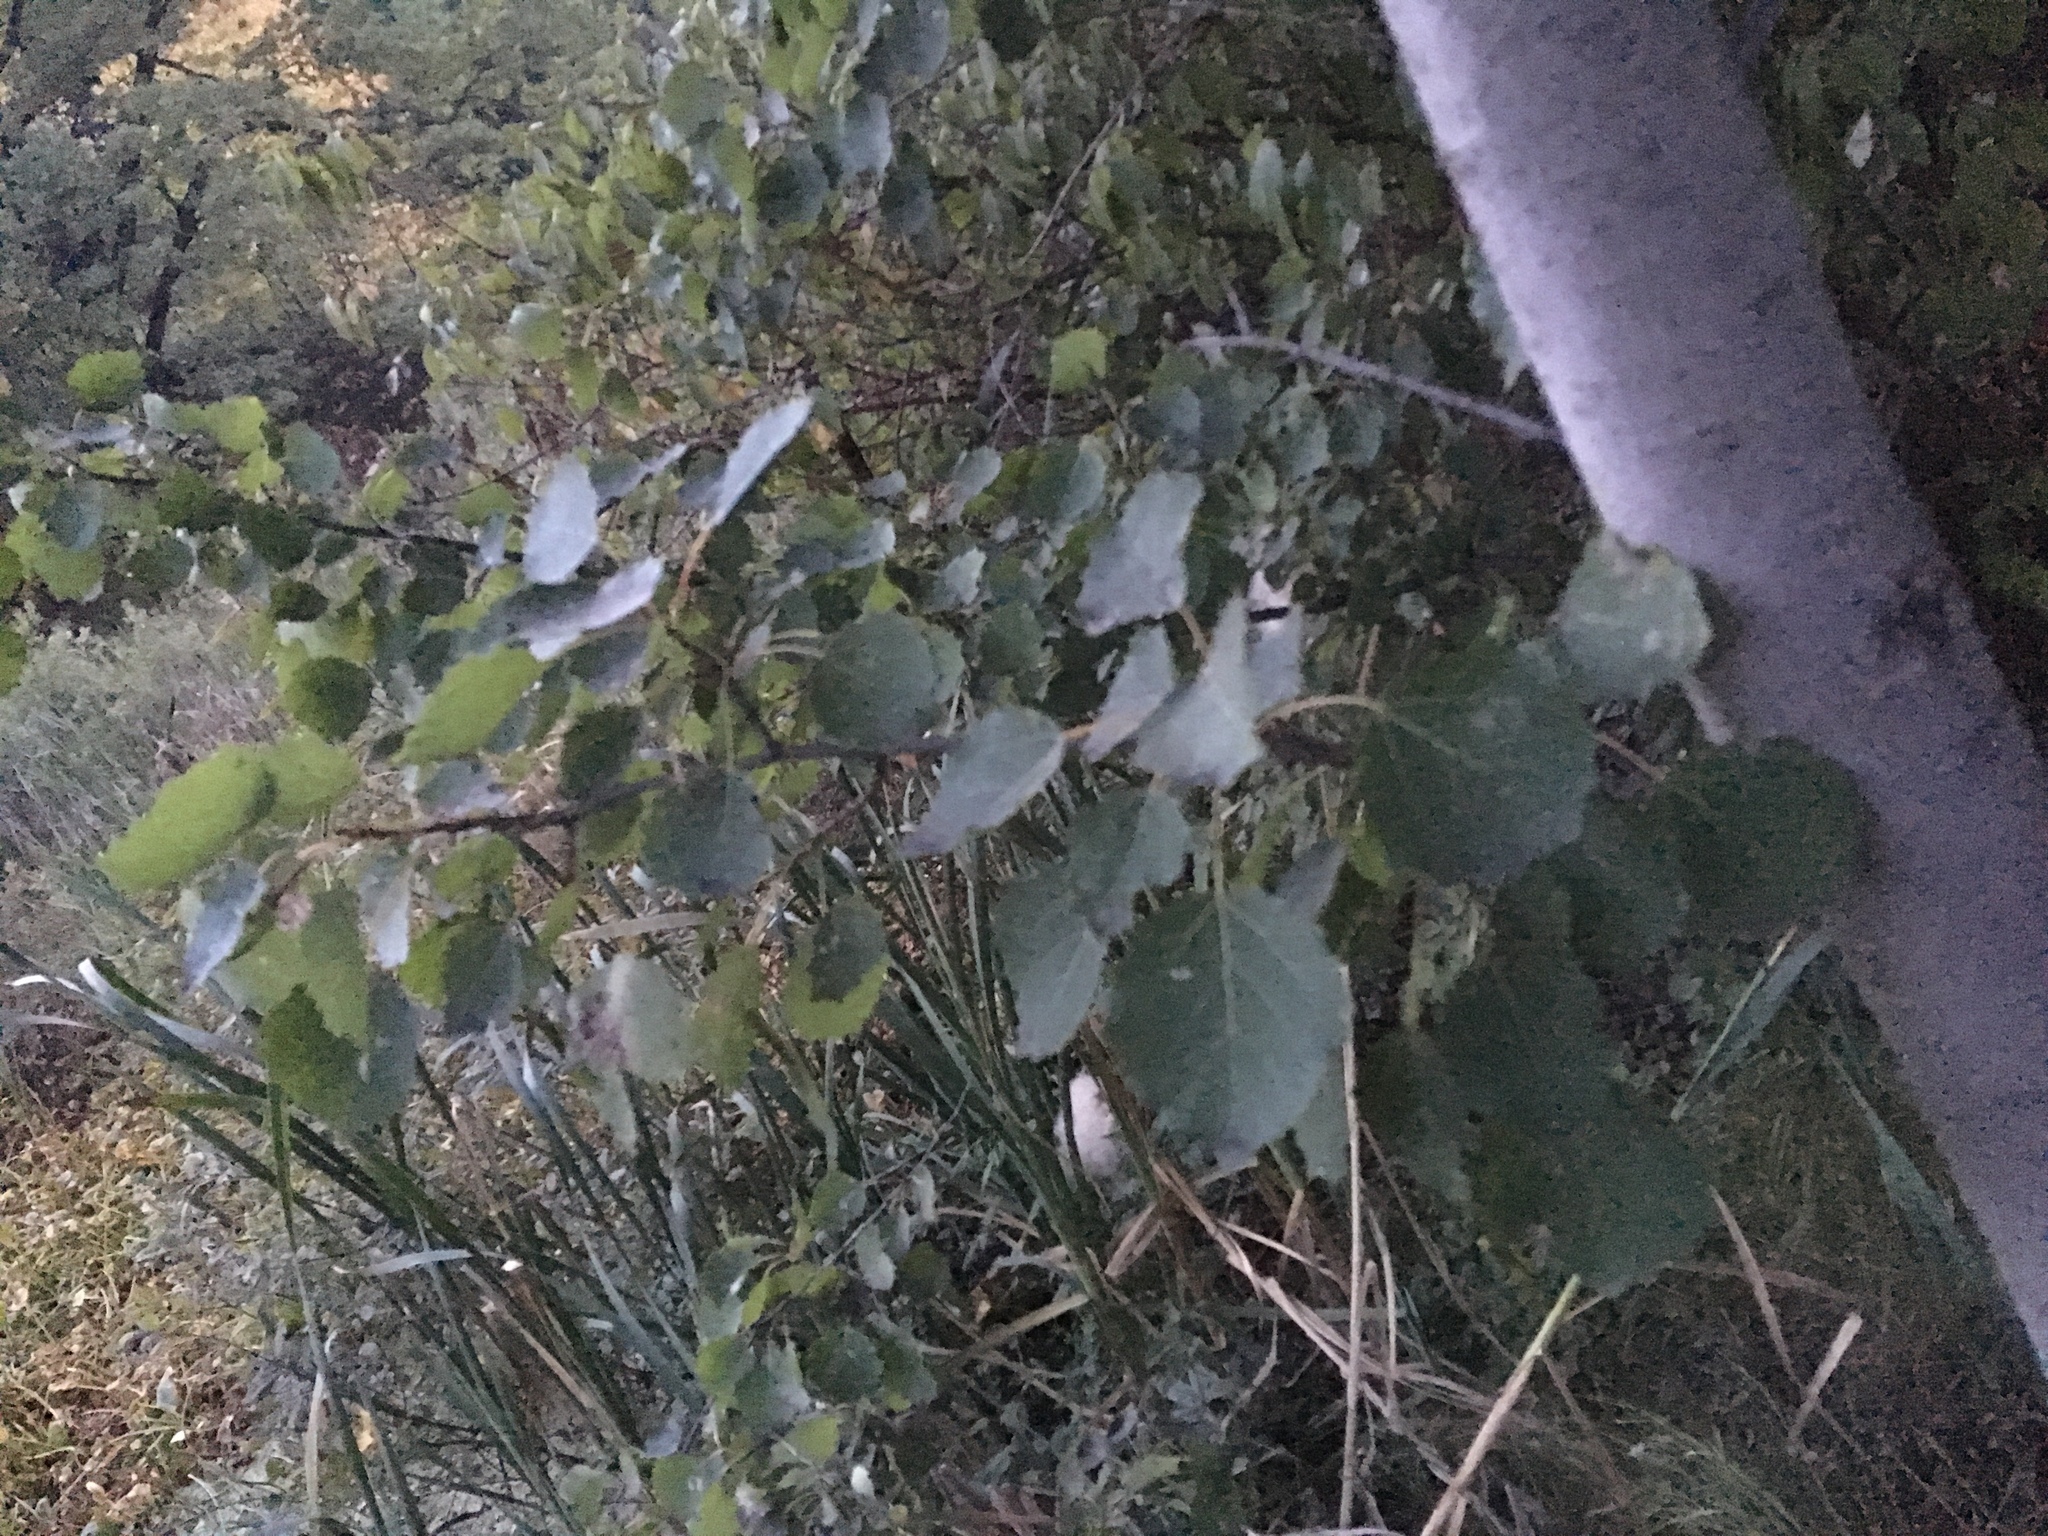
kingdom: Plantae
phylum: Tracheophyta
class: Magnoliopsida
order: Malpighiales
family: Salicaceae
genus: Populus
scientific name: Populus tremula
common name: European aspen
